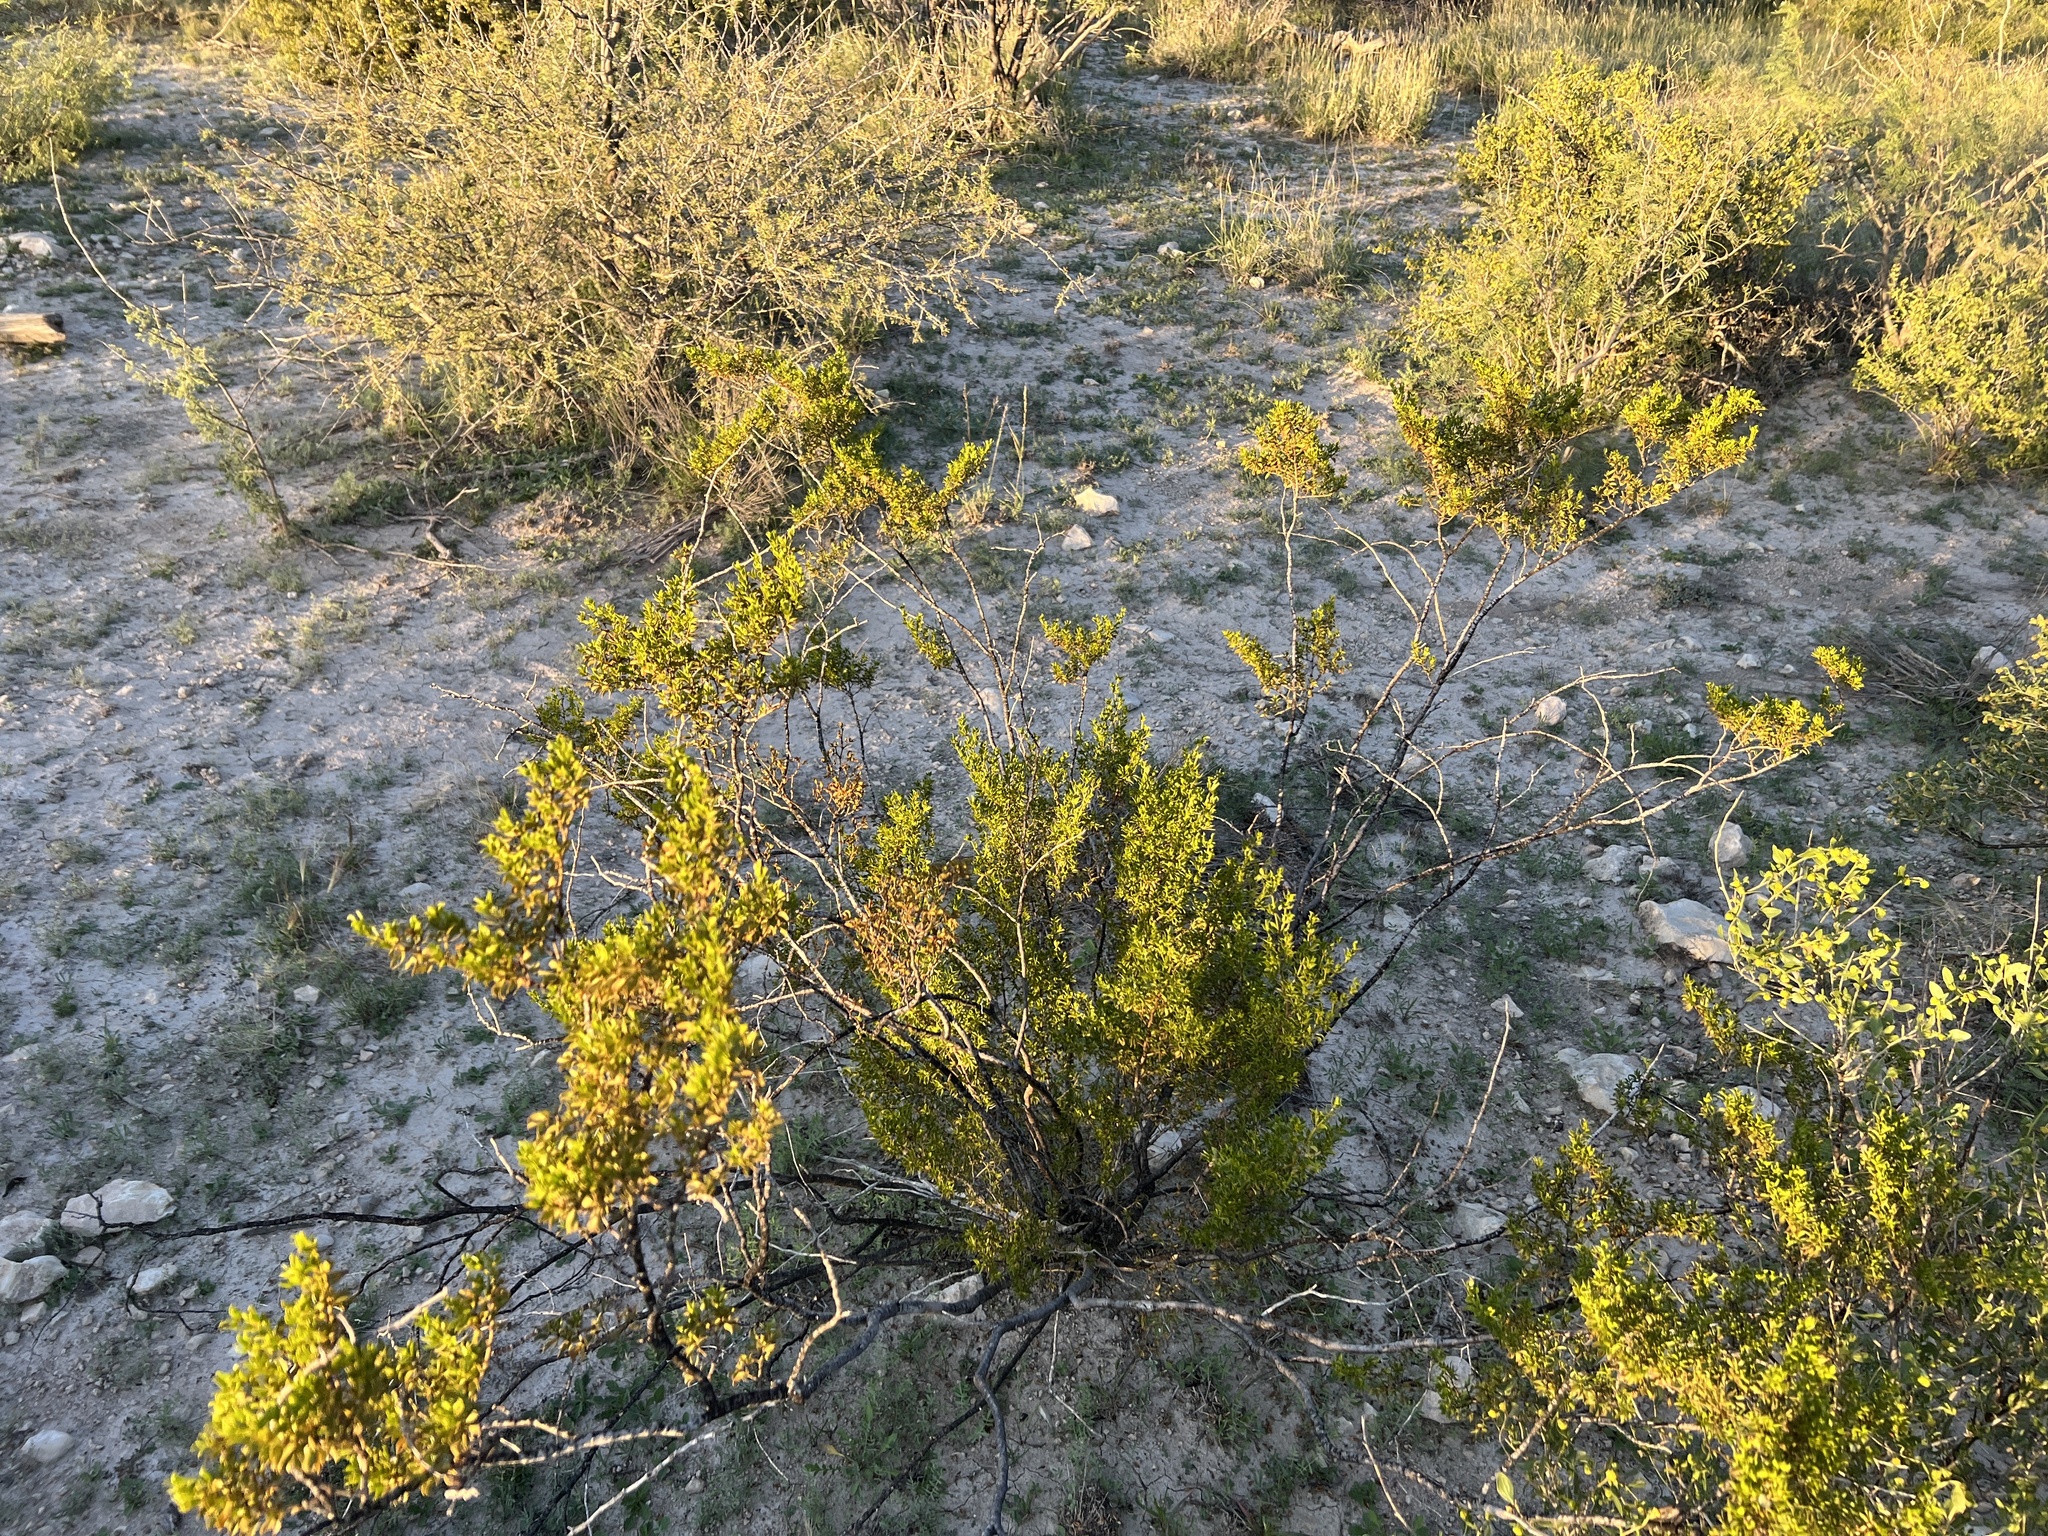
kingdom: Plantae
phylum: Tracheophyta
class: Magnoliopsida
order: Zygophyllales
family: Zygophyllaceae
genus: Larrea
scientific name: Larrea tridentata
